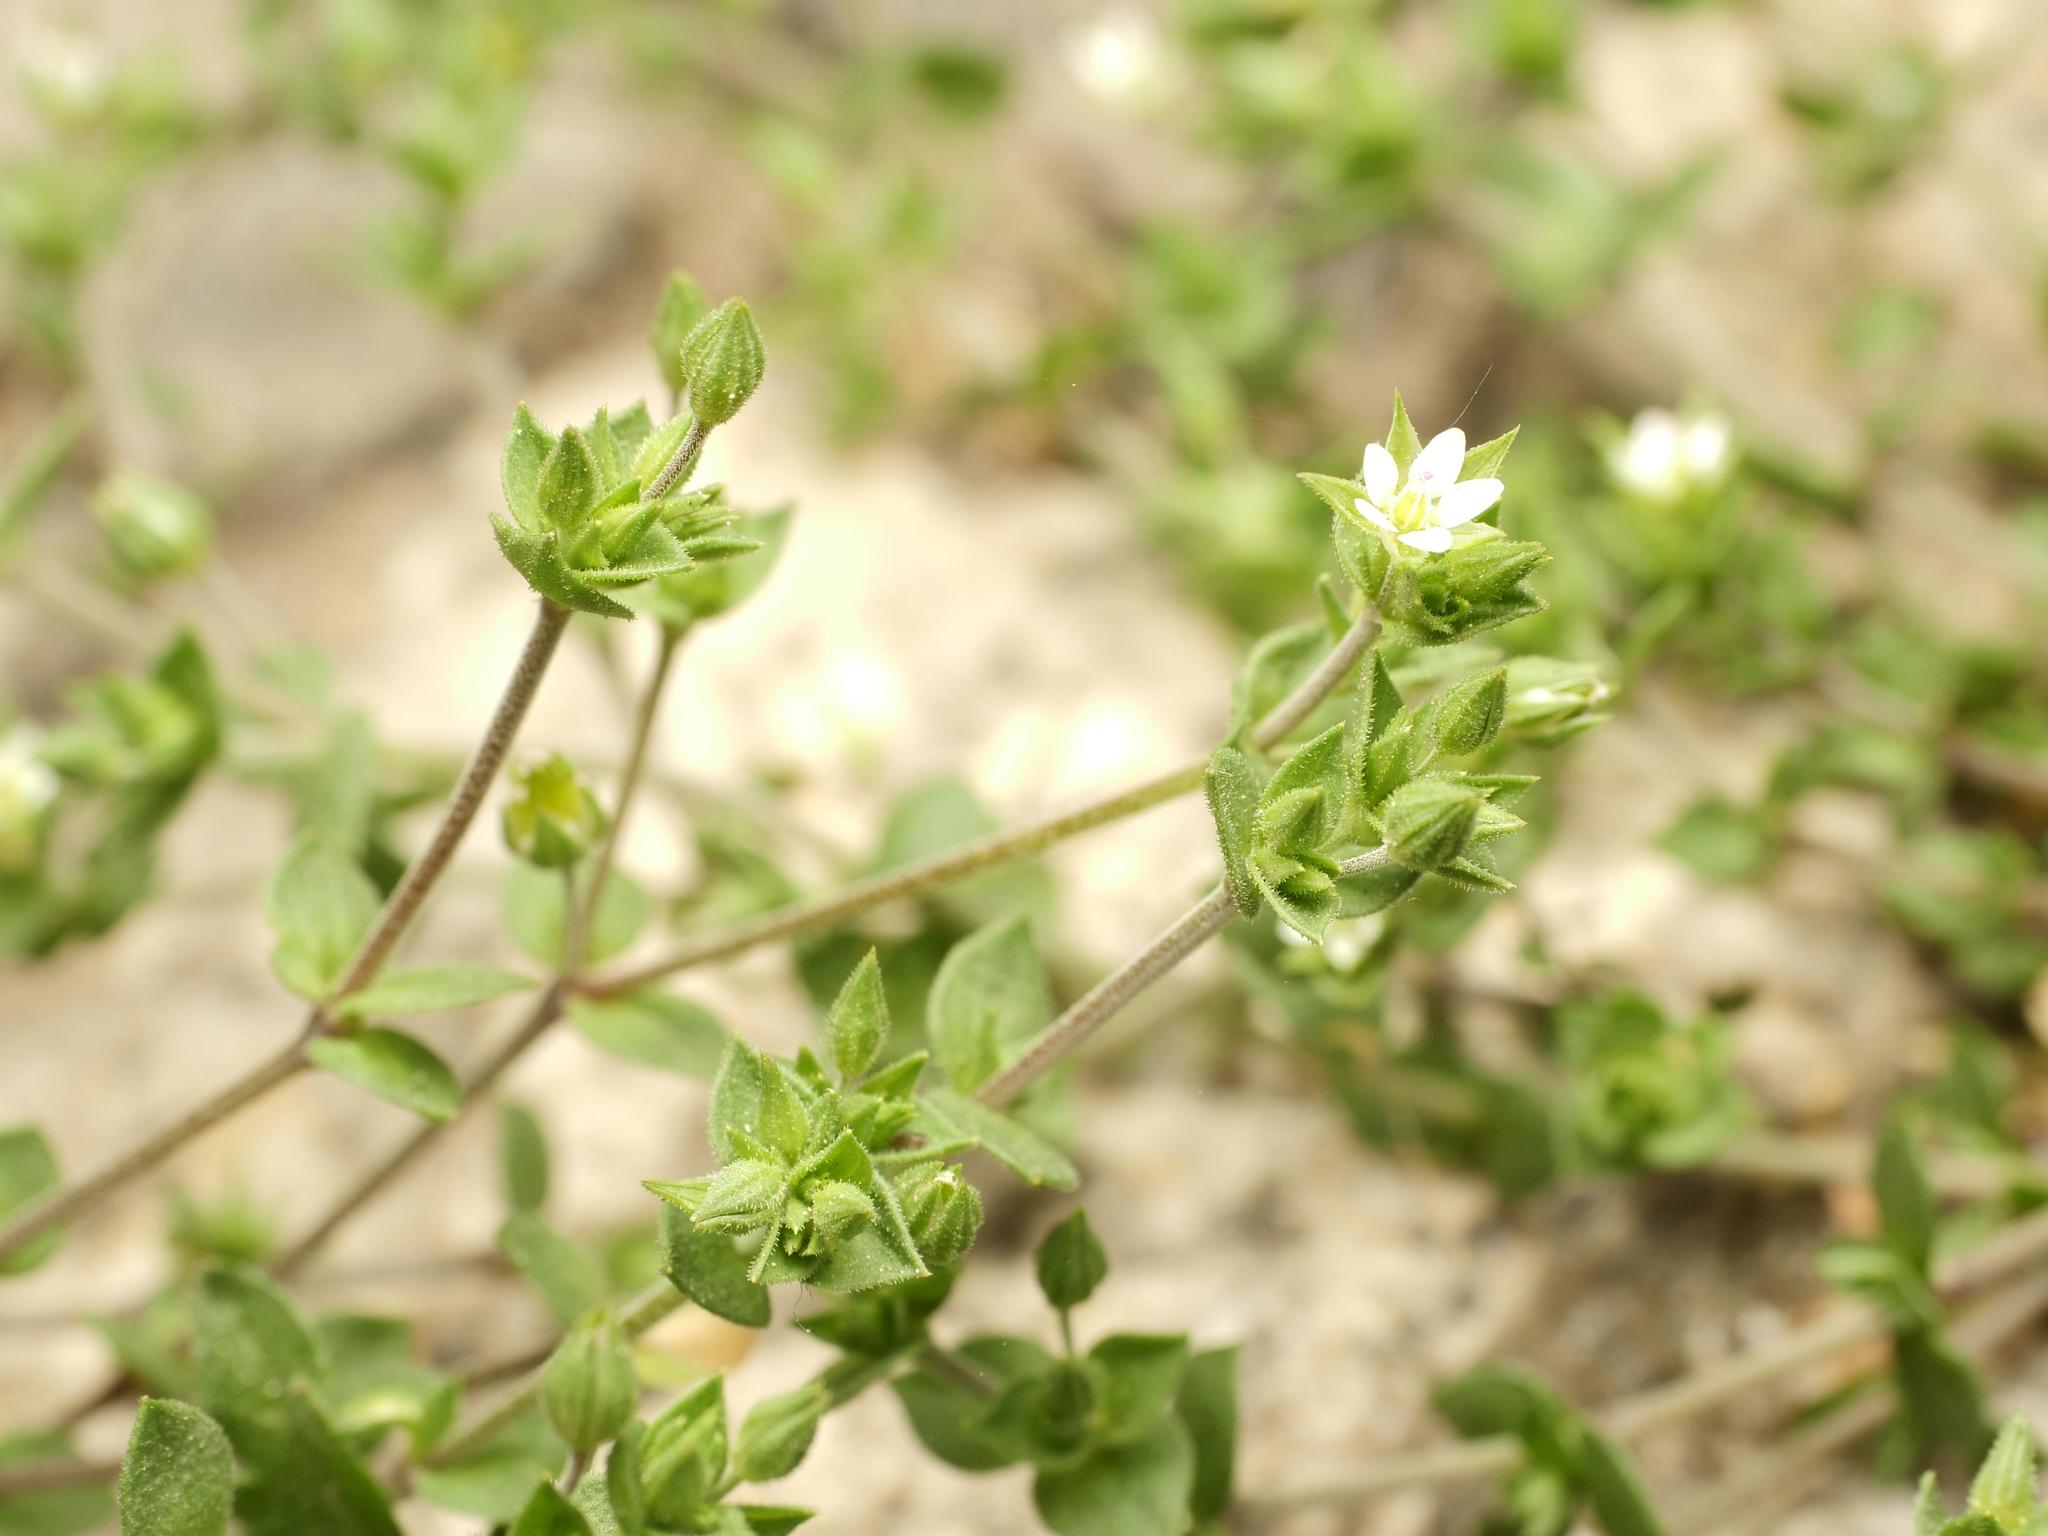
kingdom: Plantae
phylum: Tracheophyta
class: Magnoliopsida
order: Caryophyllales
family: Caryophyllaceae
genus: Arenaria
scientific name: Arenaria serpyllifolia
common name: Thyme-leaved sandwort
